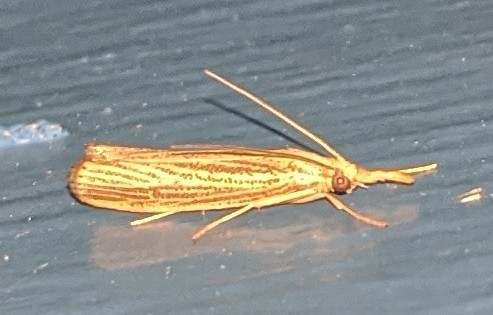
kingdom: Animalia
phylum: Arthropoda
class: Insecta
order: Lepidoptera
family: Crambidae
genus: Agriphila
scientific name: Agriphila vulgivagellus
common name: Vagabond crambus moth
